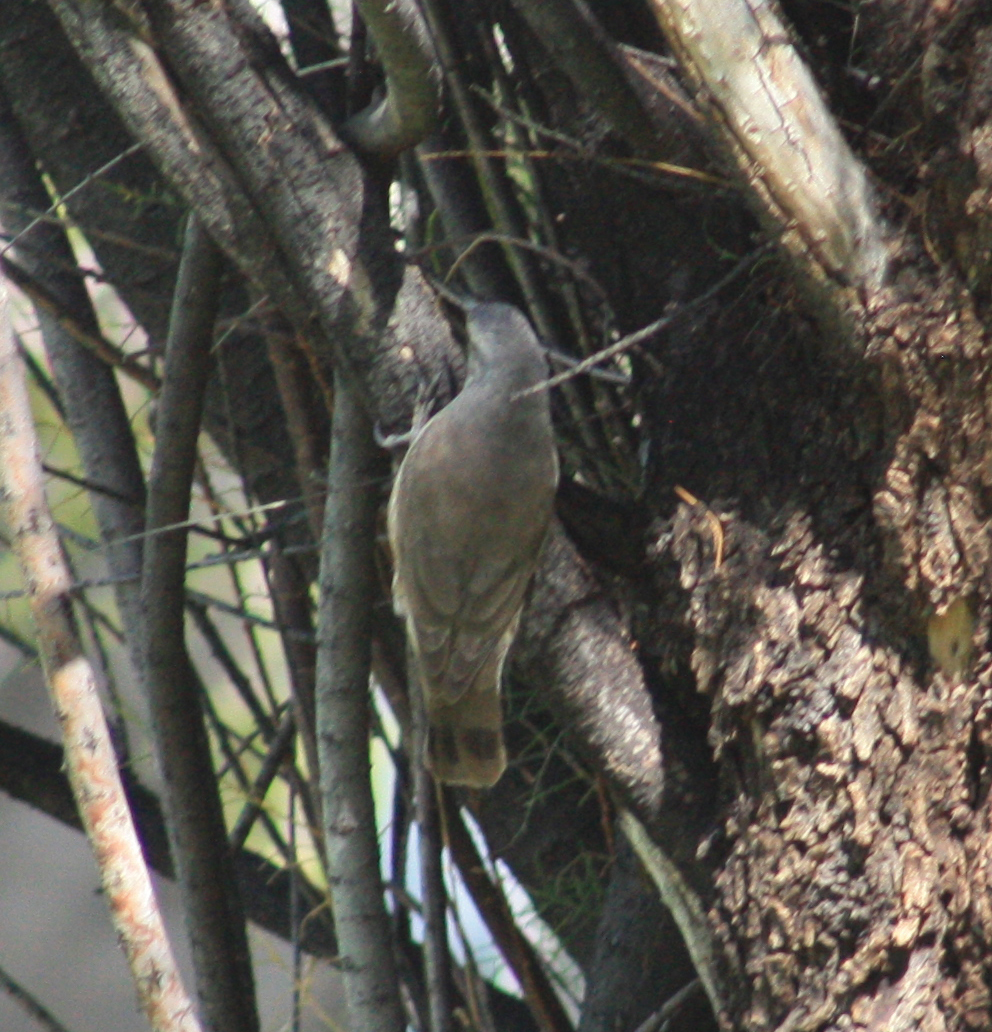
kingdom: Animalia
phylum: Chordata
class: Aves
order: Passeriformes
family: Climacteridae
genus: Climacteris
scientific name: Climacteris picumnus
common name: Brown treecreeper
